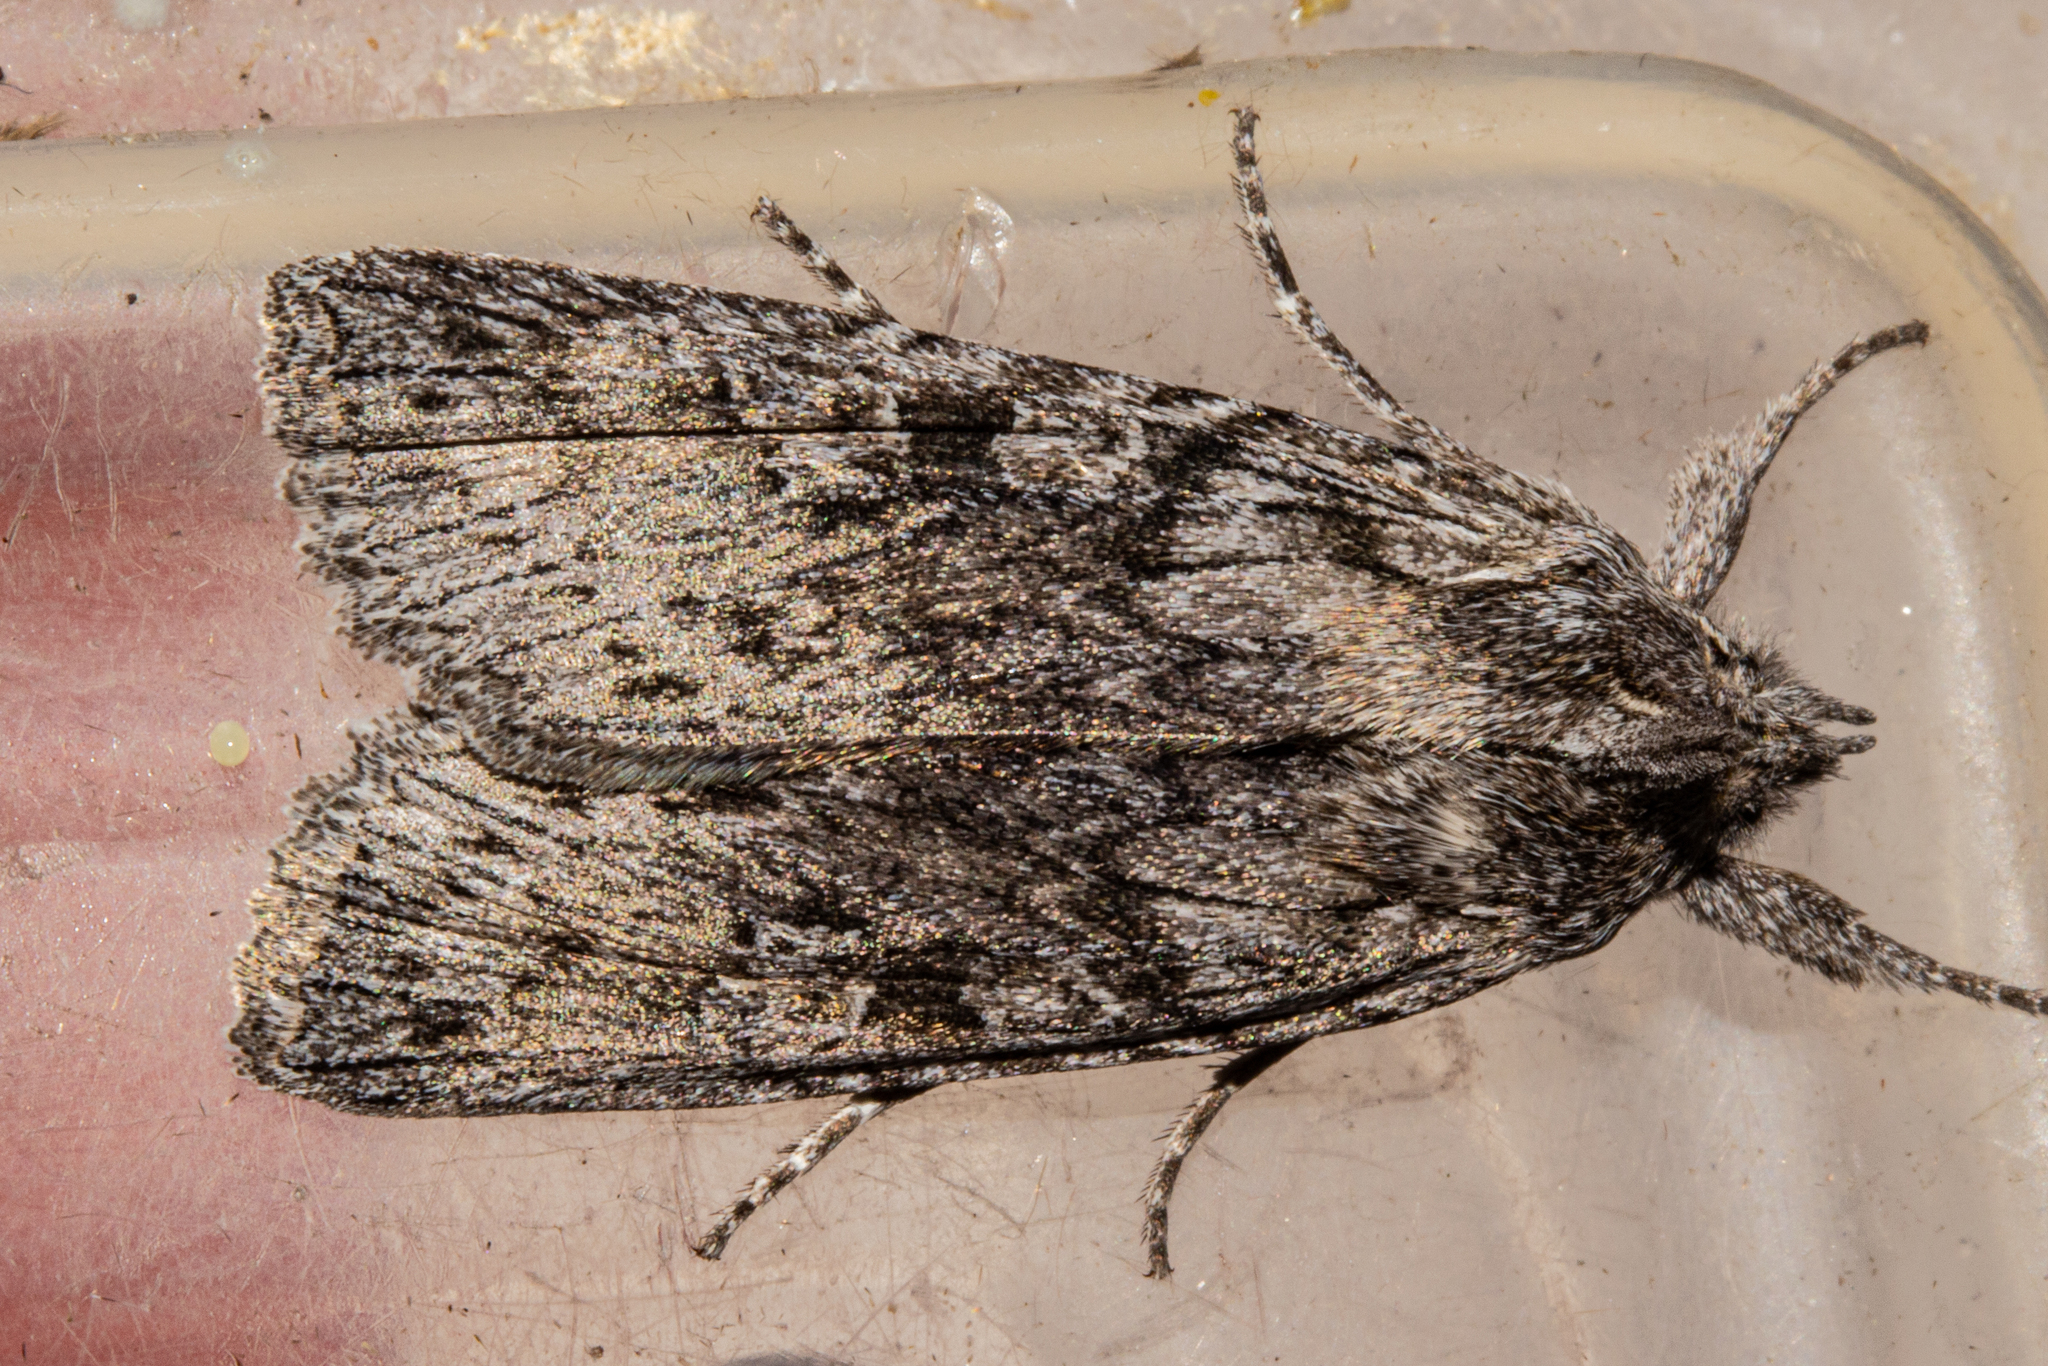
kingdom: Animalia
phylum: Arthropoda
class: Insecta
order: Lepidoptera
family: Noctuidae
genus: Physetica
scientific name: Physetica phricias
